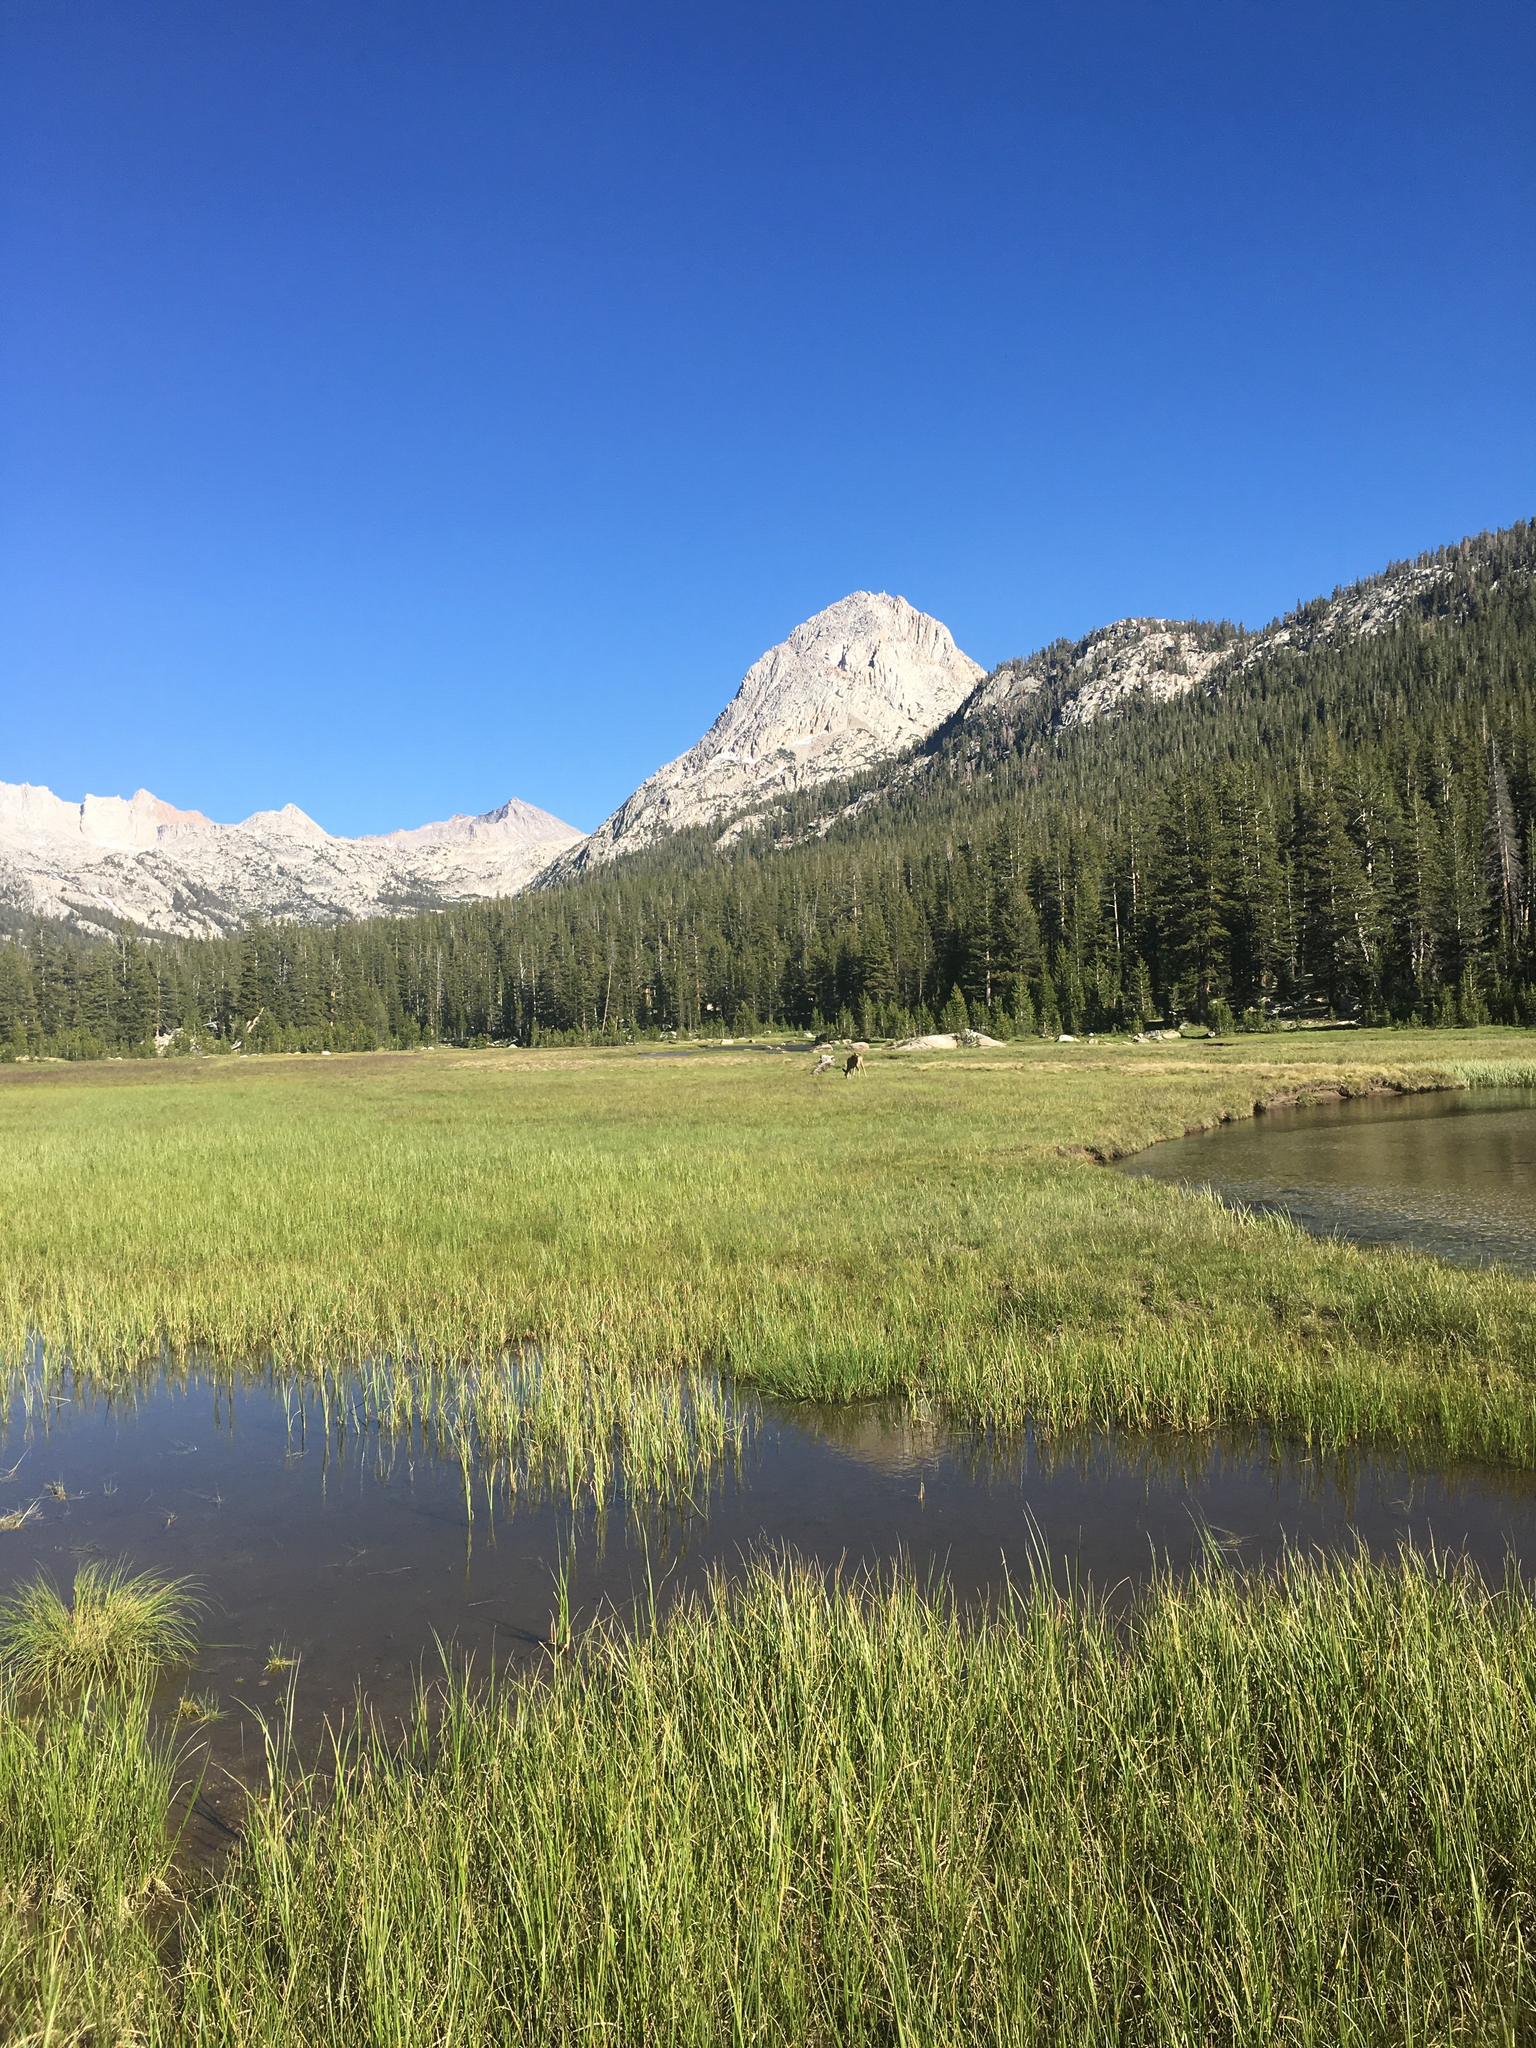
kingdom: Animalia
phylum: Chordata
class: Mammalia
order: Artiodactyla
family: Cervidae
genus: Odocoileus
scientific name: Odocoileus hemionus
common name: Mule deer
